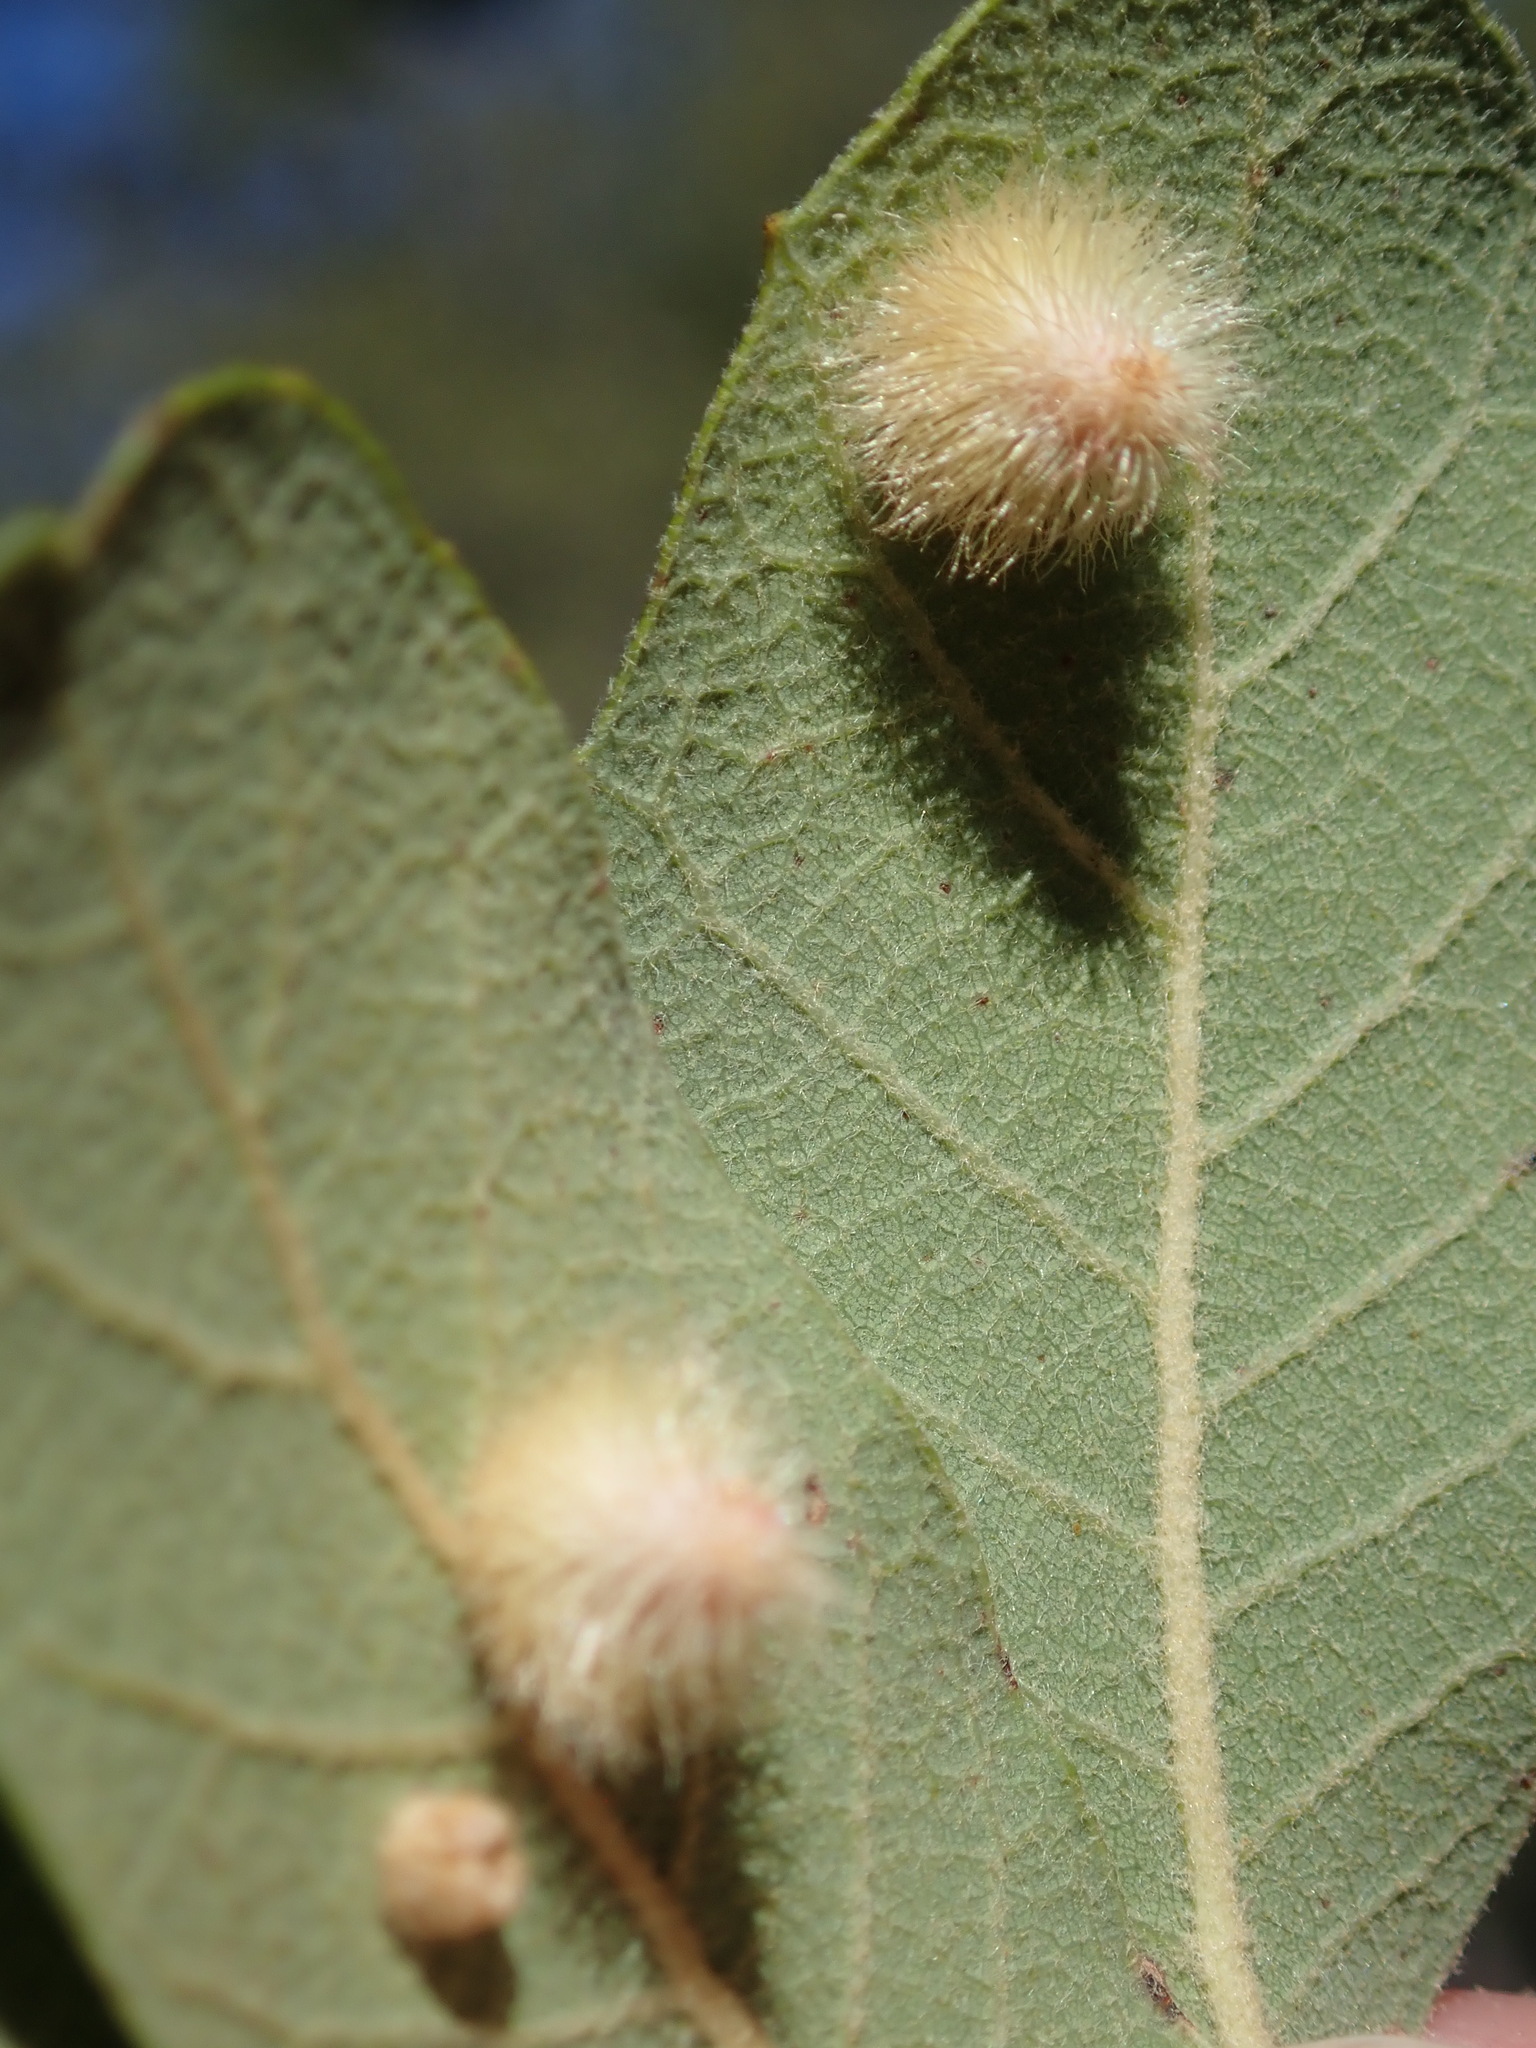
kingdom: Animalia
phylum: Arthropoda
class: Insecta
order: Hymenoptera
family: Cynipidae
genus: Andricus
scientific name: Andricus
